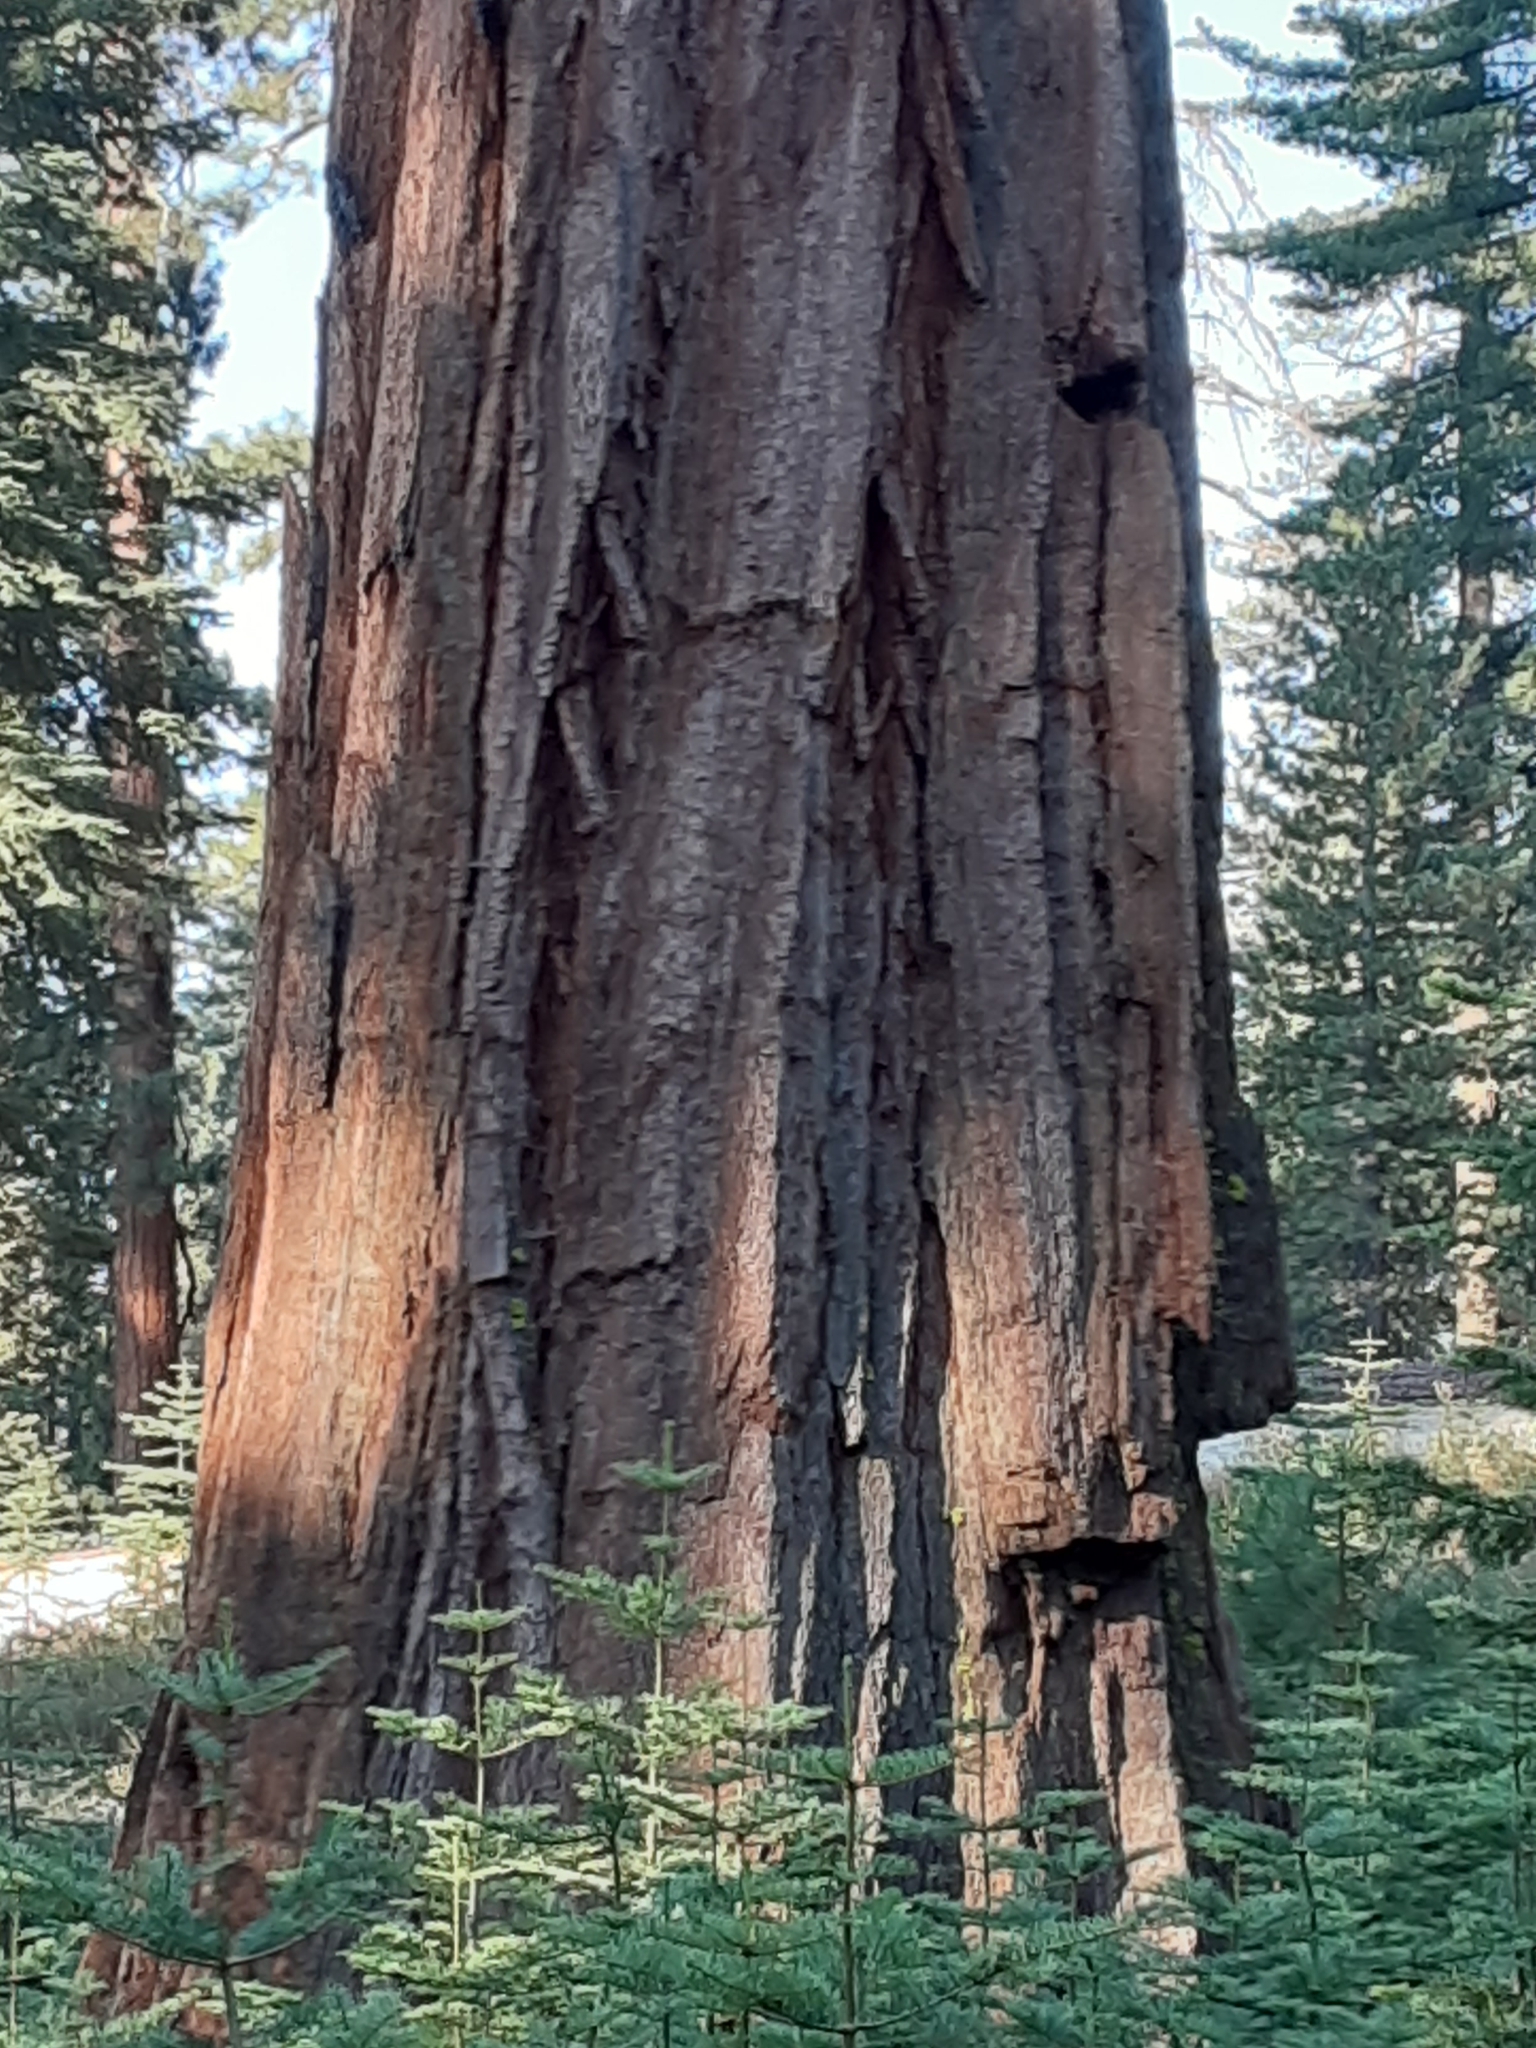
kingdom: Plantae
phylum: Tracheophyta
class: Pinopsida
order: Pinales
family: Cupressaceae
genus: Sequoiadendron
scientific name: Sequoiadendron giganteum
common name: Wellingtonia
